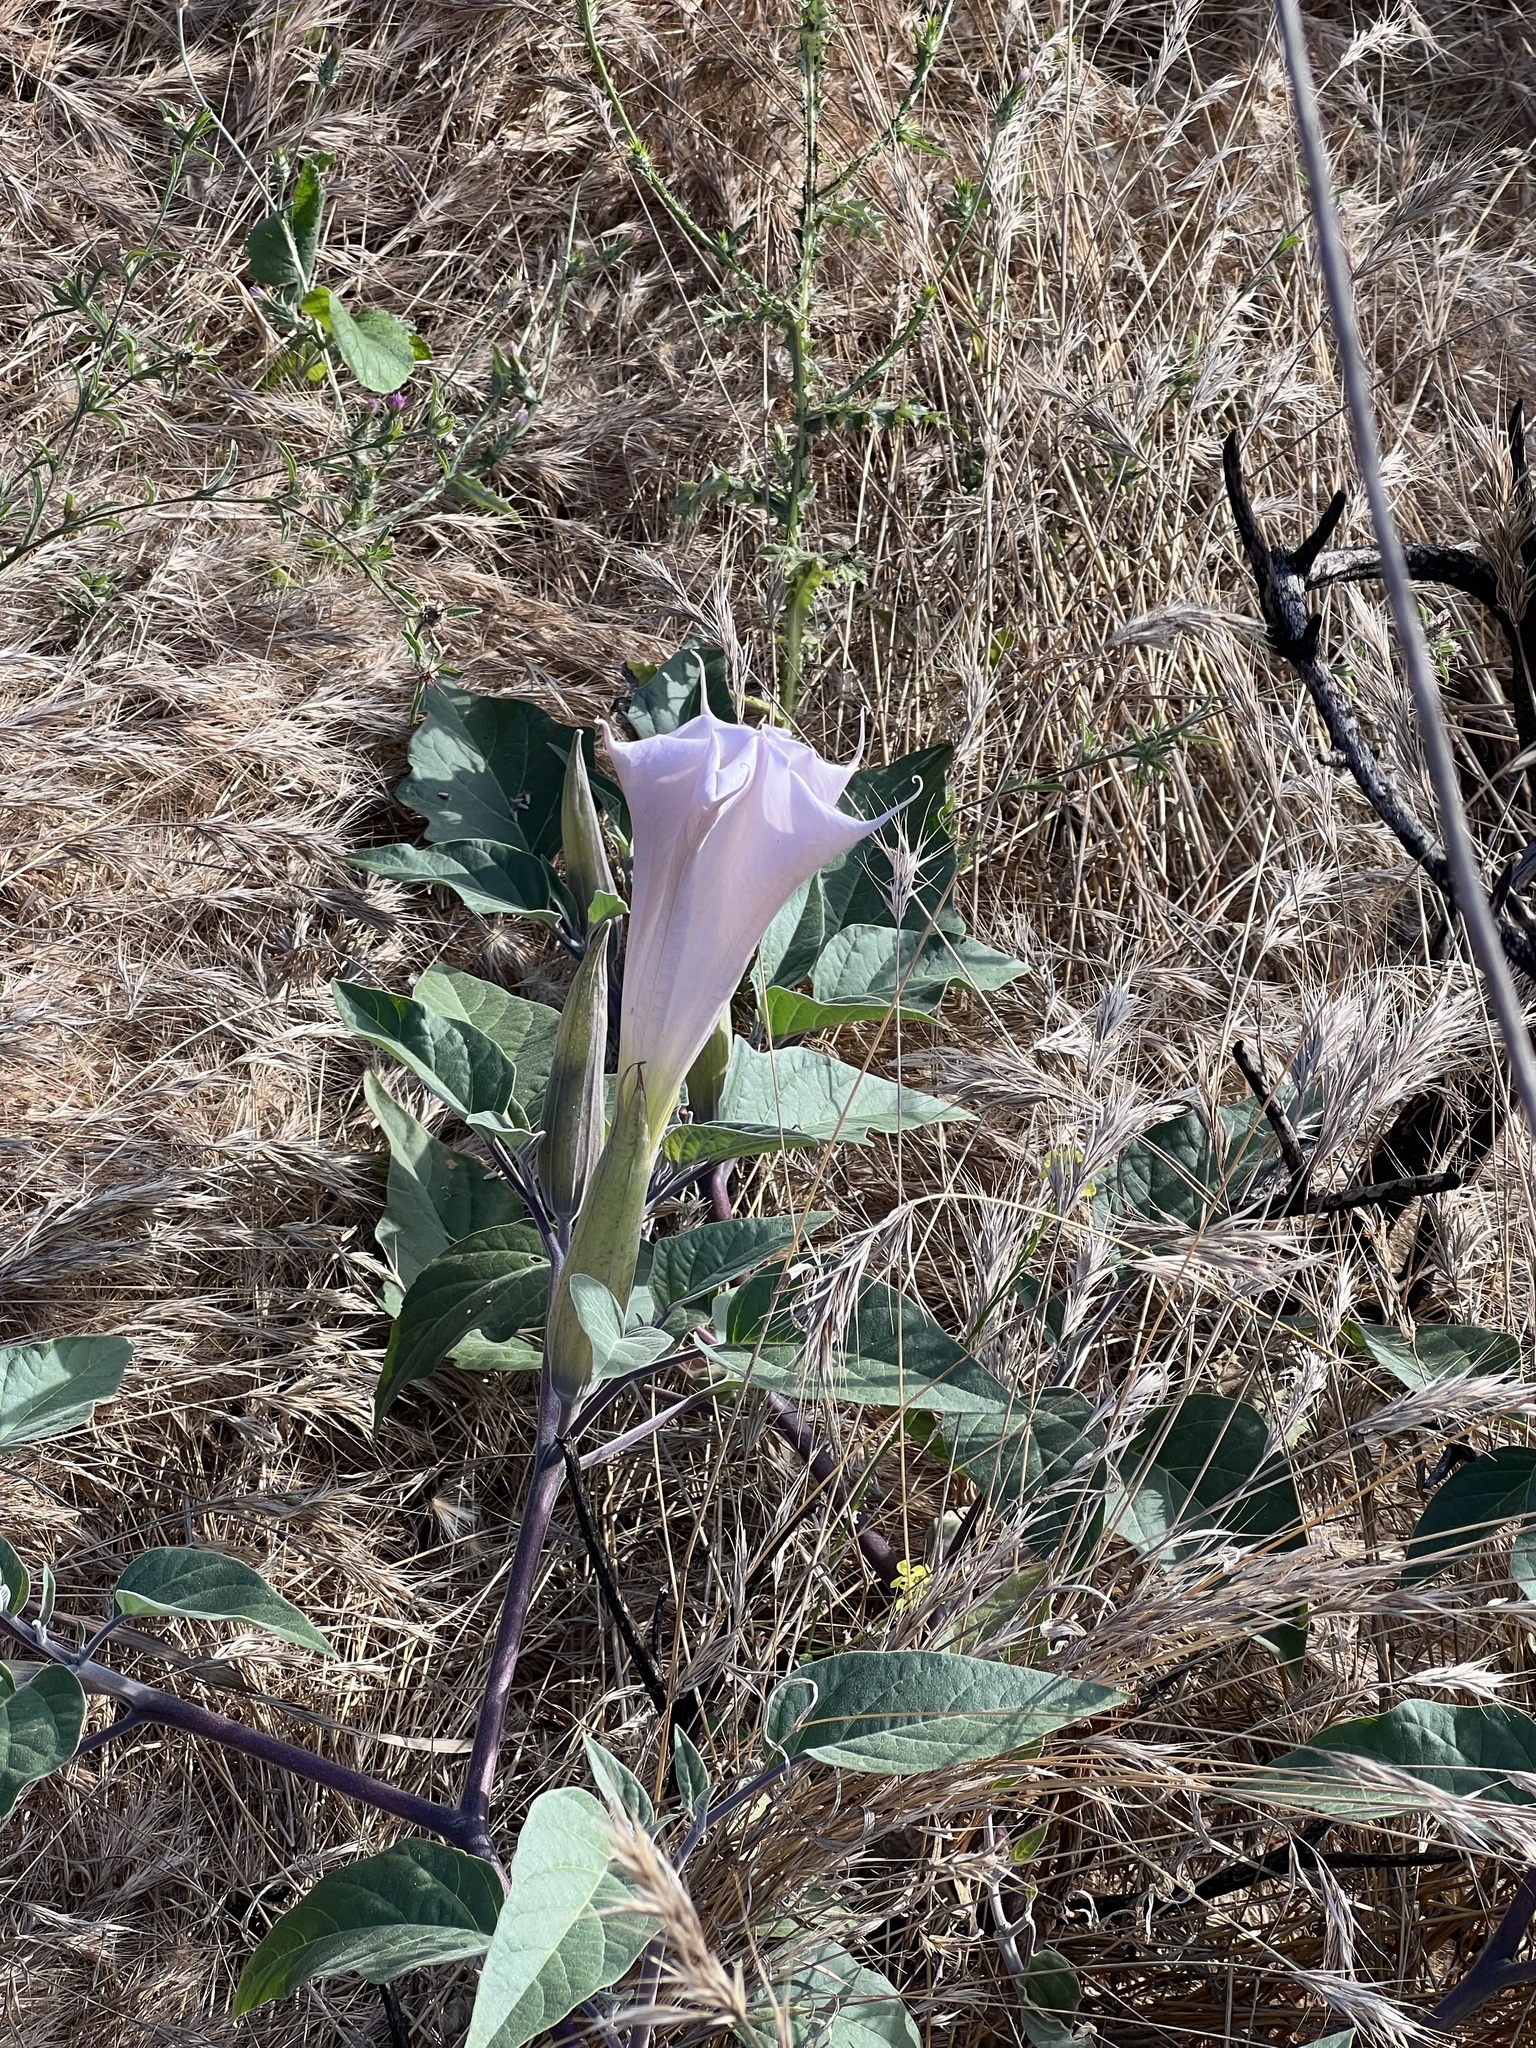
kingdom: Plantae
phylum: Tracheophyta
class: Magnoliopsida
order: Solanales
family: Solanaceae
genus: Datura
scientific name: Datura wrightii
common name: Sacred thorn-apple
